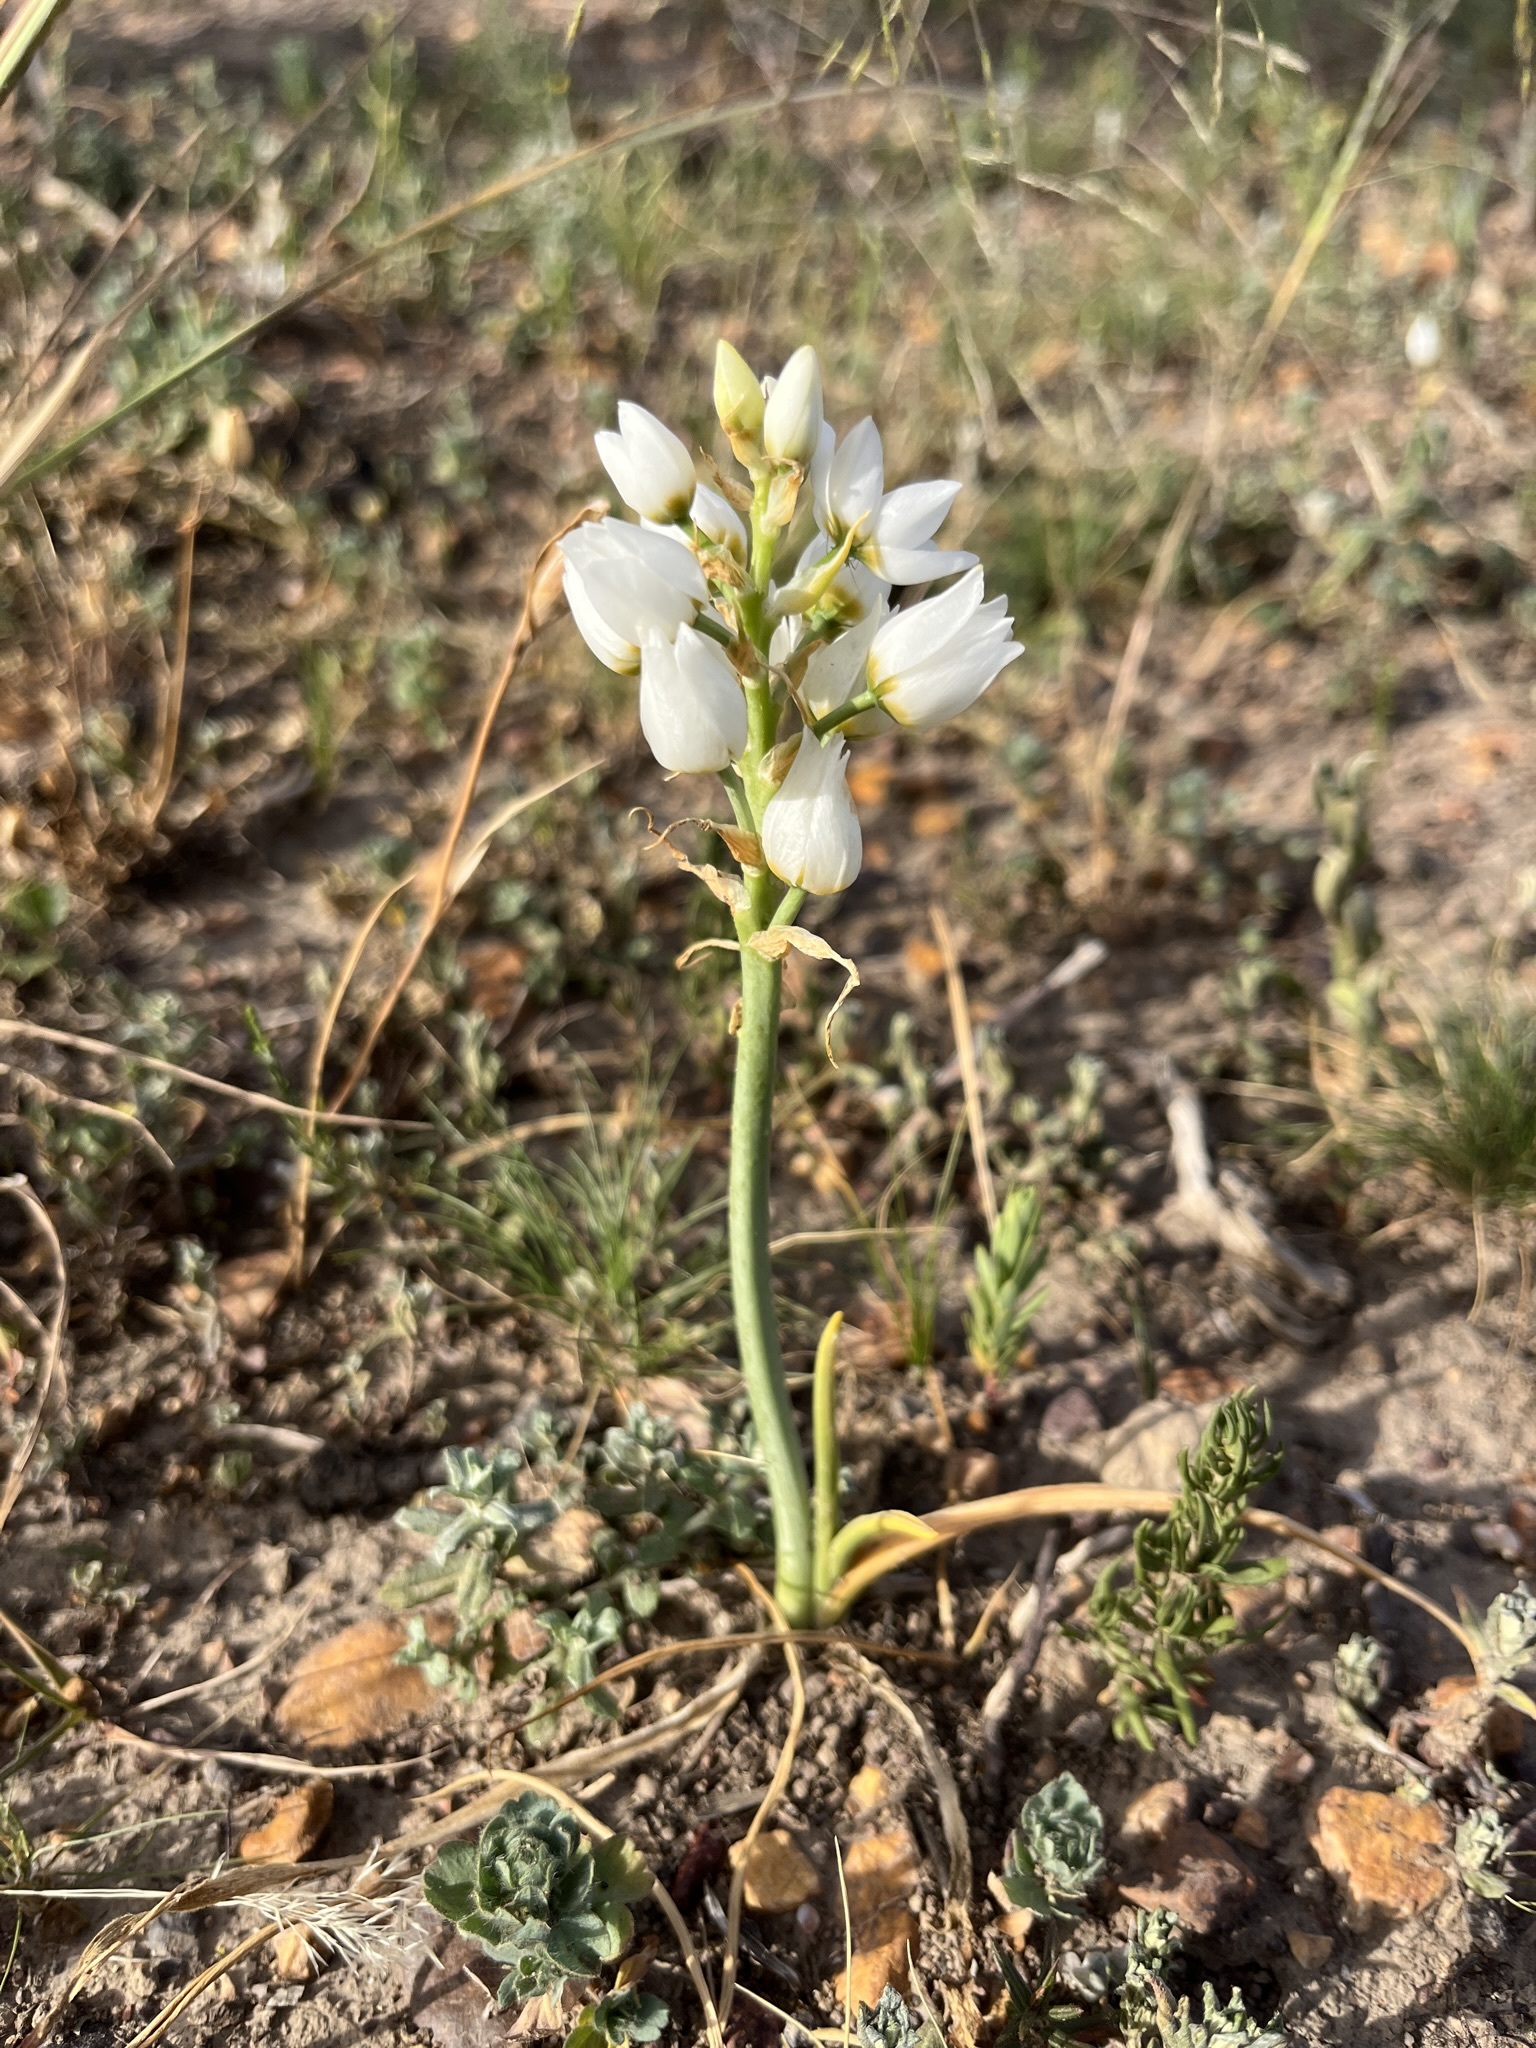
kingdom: Plantae
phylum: Tracheophyta
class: Liliopsida
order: Asparagales
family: Asparagaceae
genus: Ornithogalum
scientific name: Ornithogalum thyrsoides
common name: Chincherinchee
